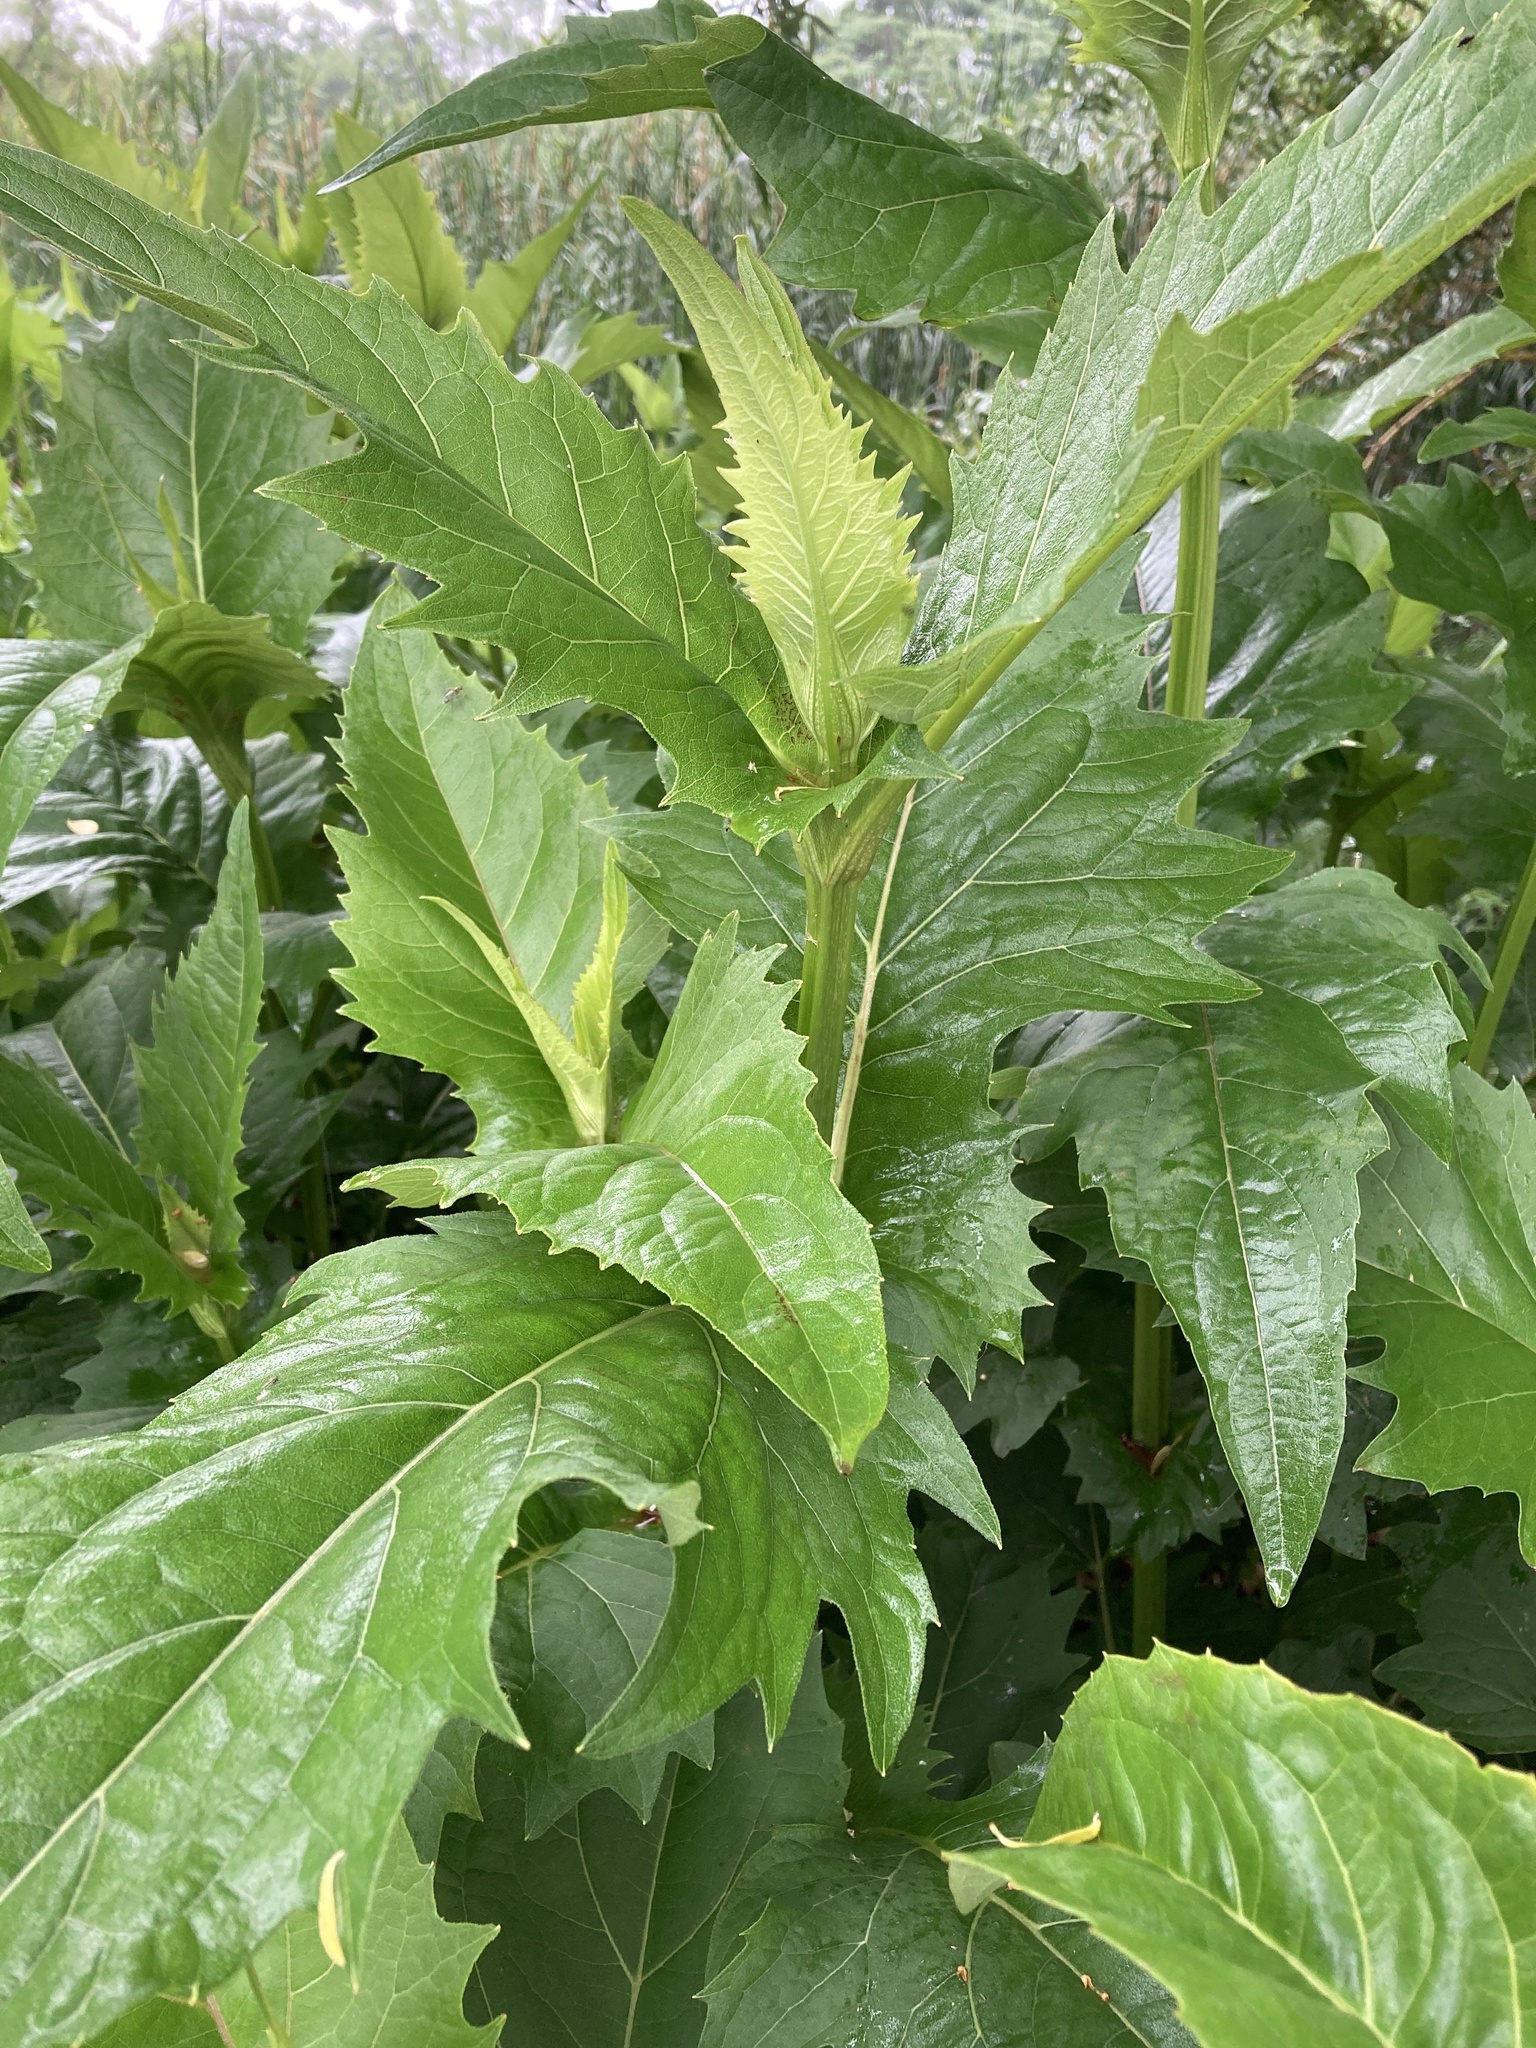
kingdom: Plantae
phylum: Tracheophyta
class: Magnoliopsida
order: Asterales
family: Asteraceae
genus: Silphium
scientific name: Silphium perfoliatum
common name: Cup-plant
